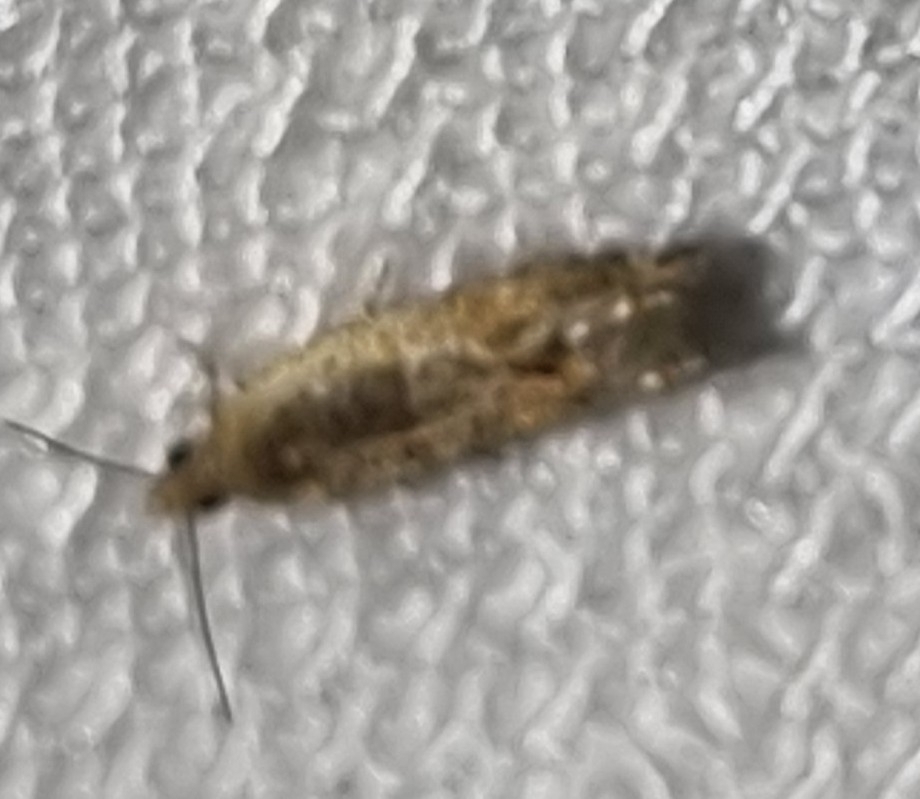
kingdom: Animalia
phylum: Arthropoda
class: Insecta
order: Lepidoptera
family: Tortricidae
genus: Crocidosema
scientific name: Crocidosema plebejana
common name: Southern bell
